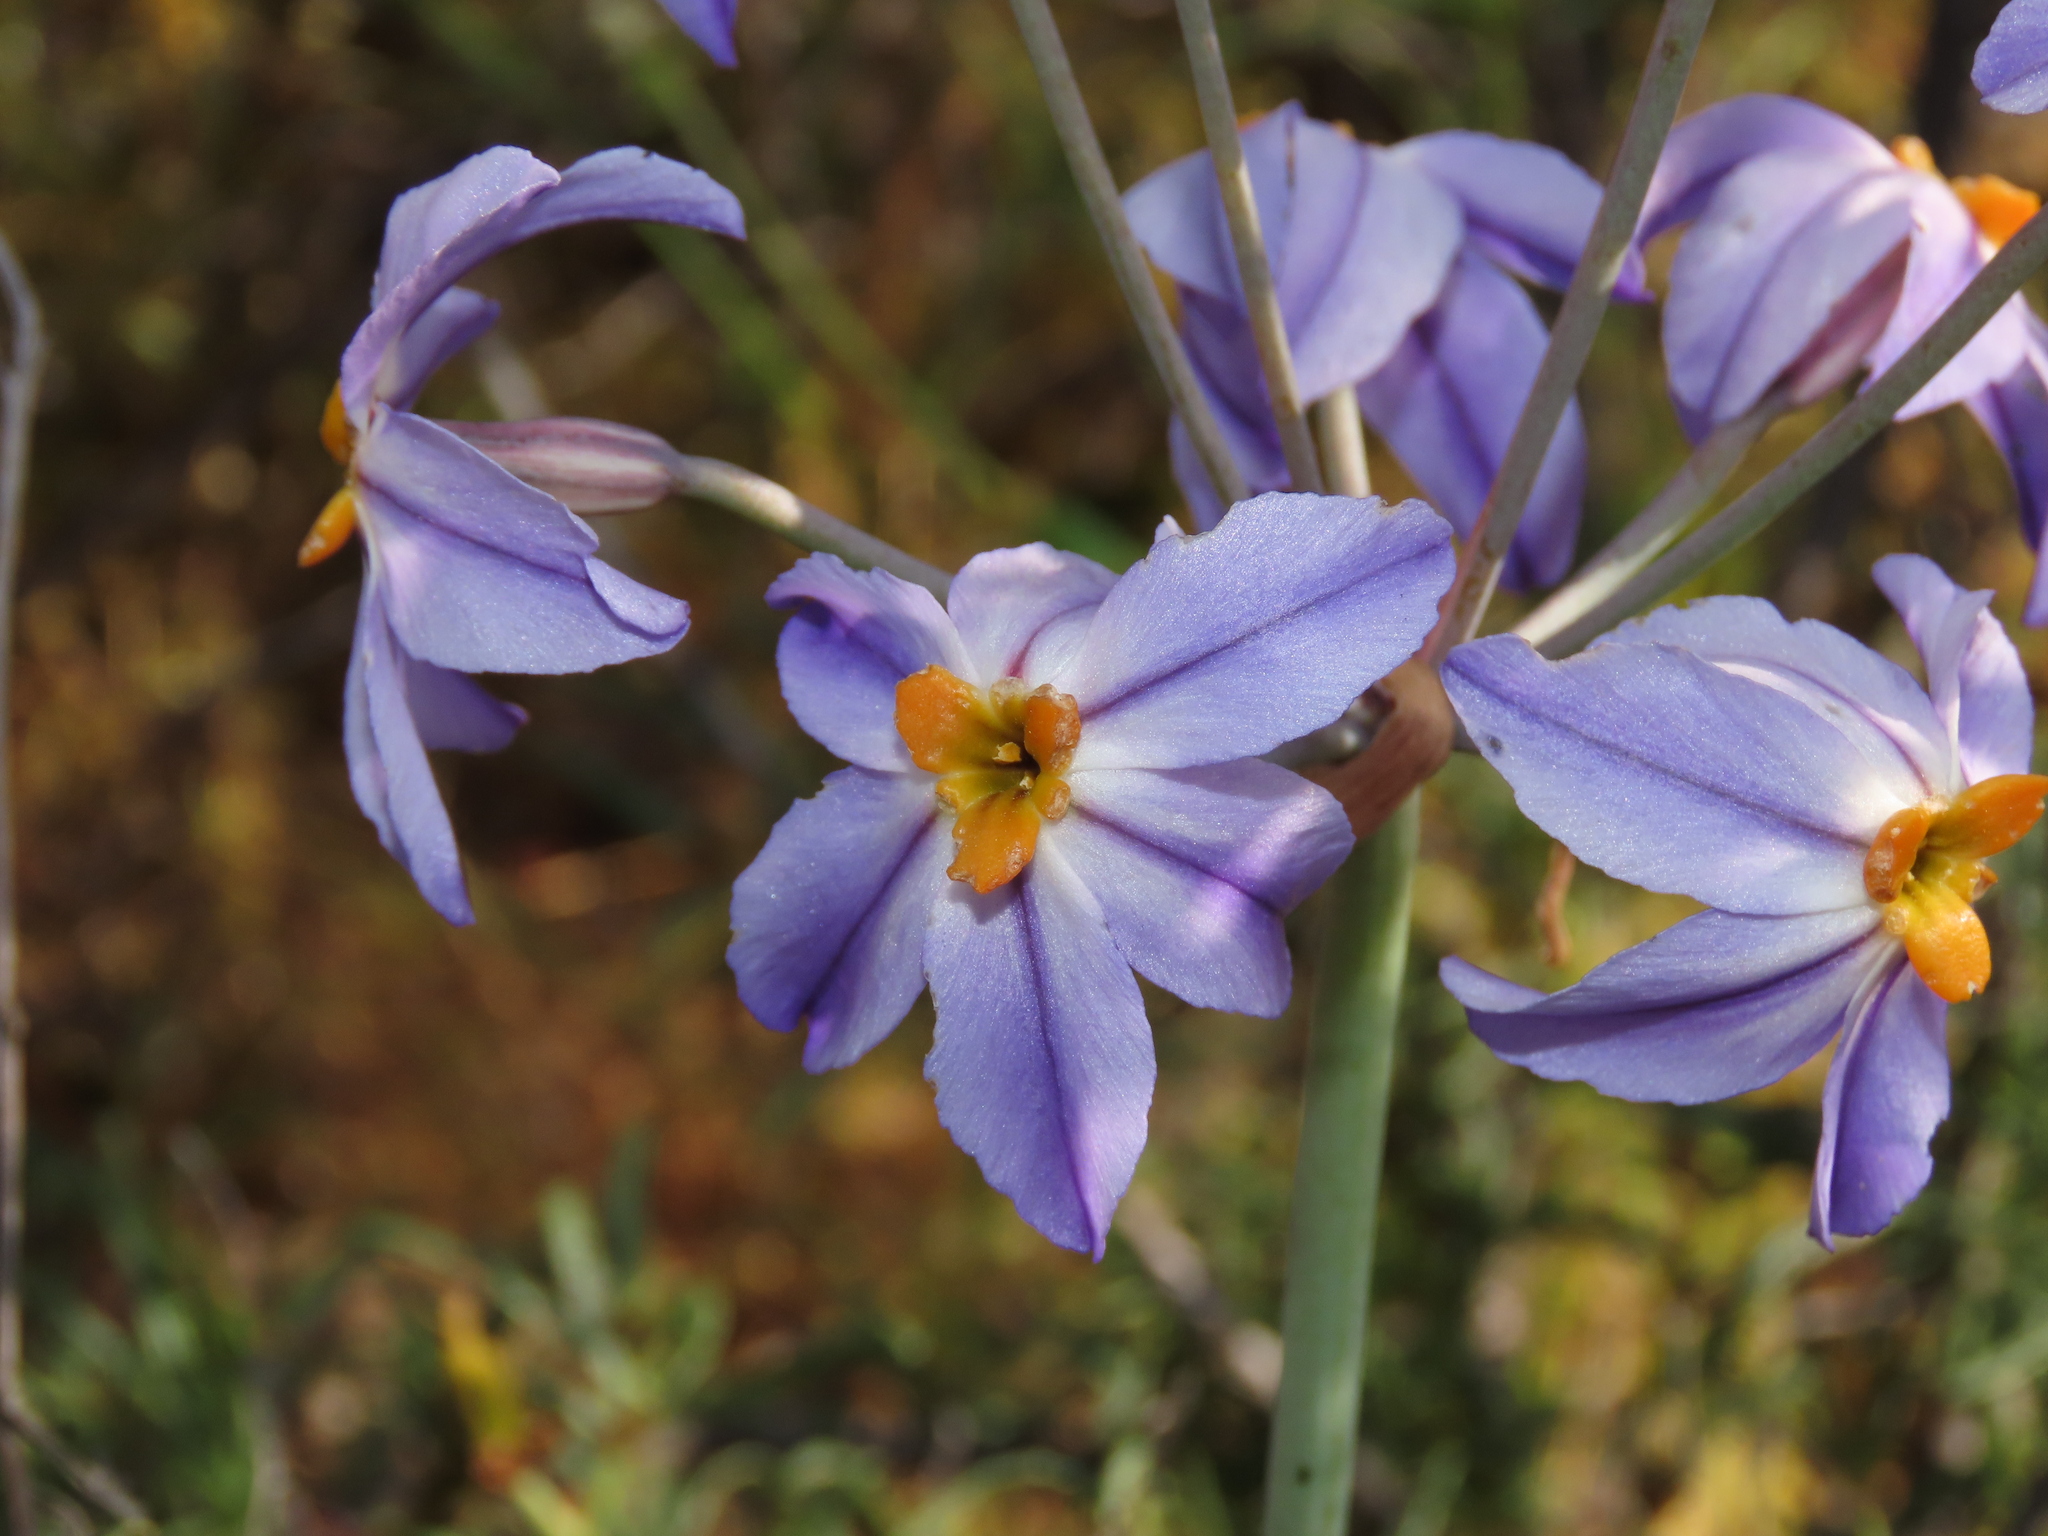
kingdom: Plantae
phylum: Tracheophyta
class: Liliopsida
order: Asparagales
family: Amaryllidaceae
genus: Leucocoryne
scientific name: Leucocoryne coronata
